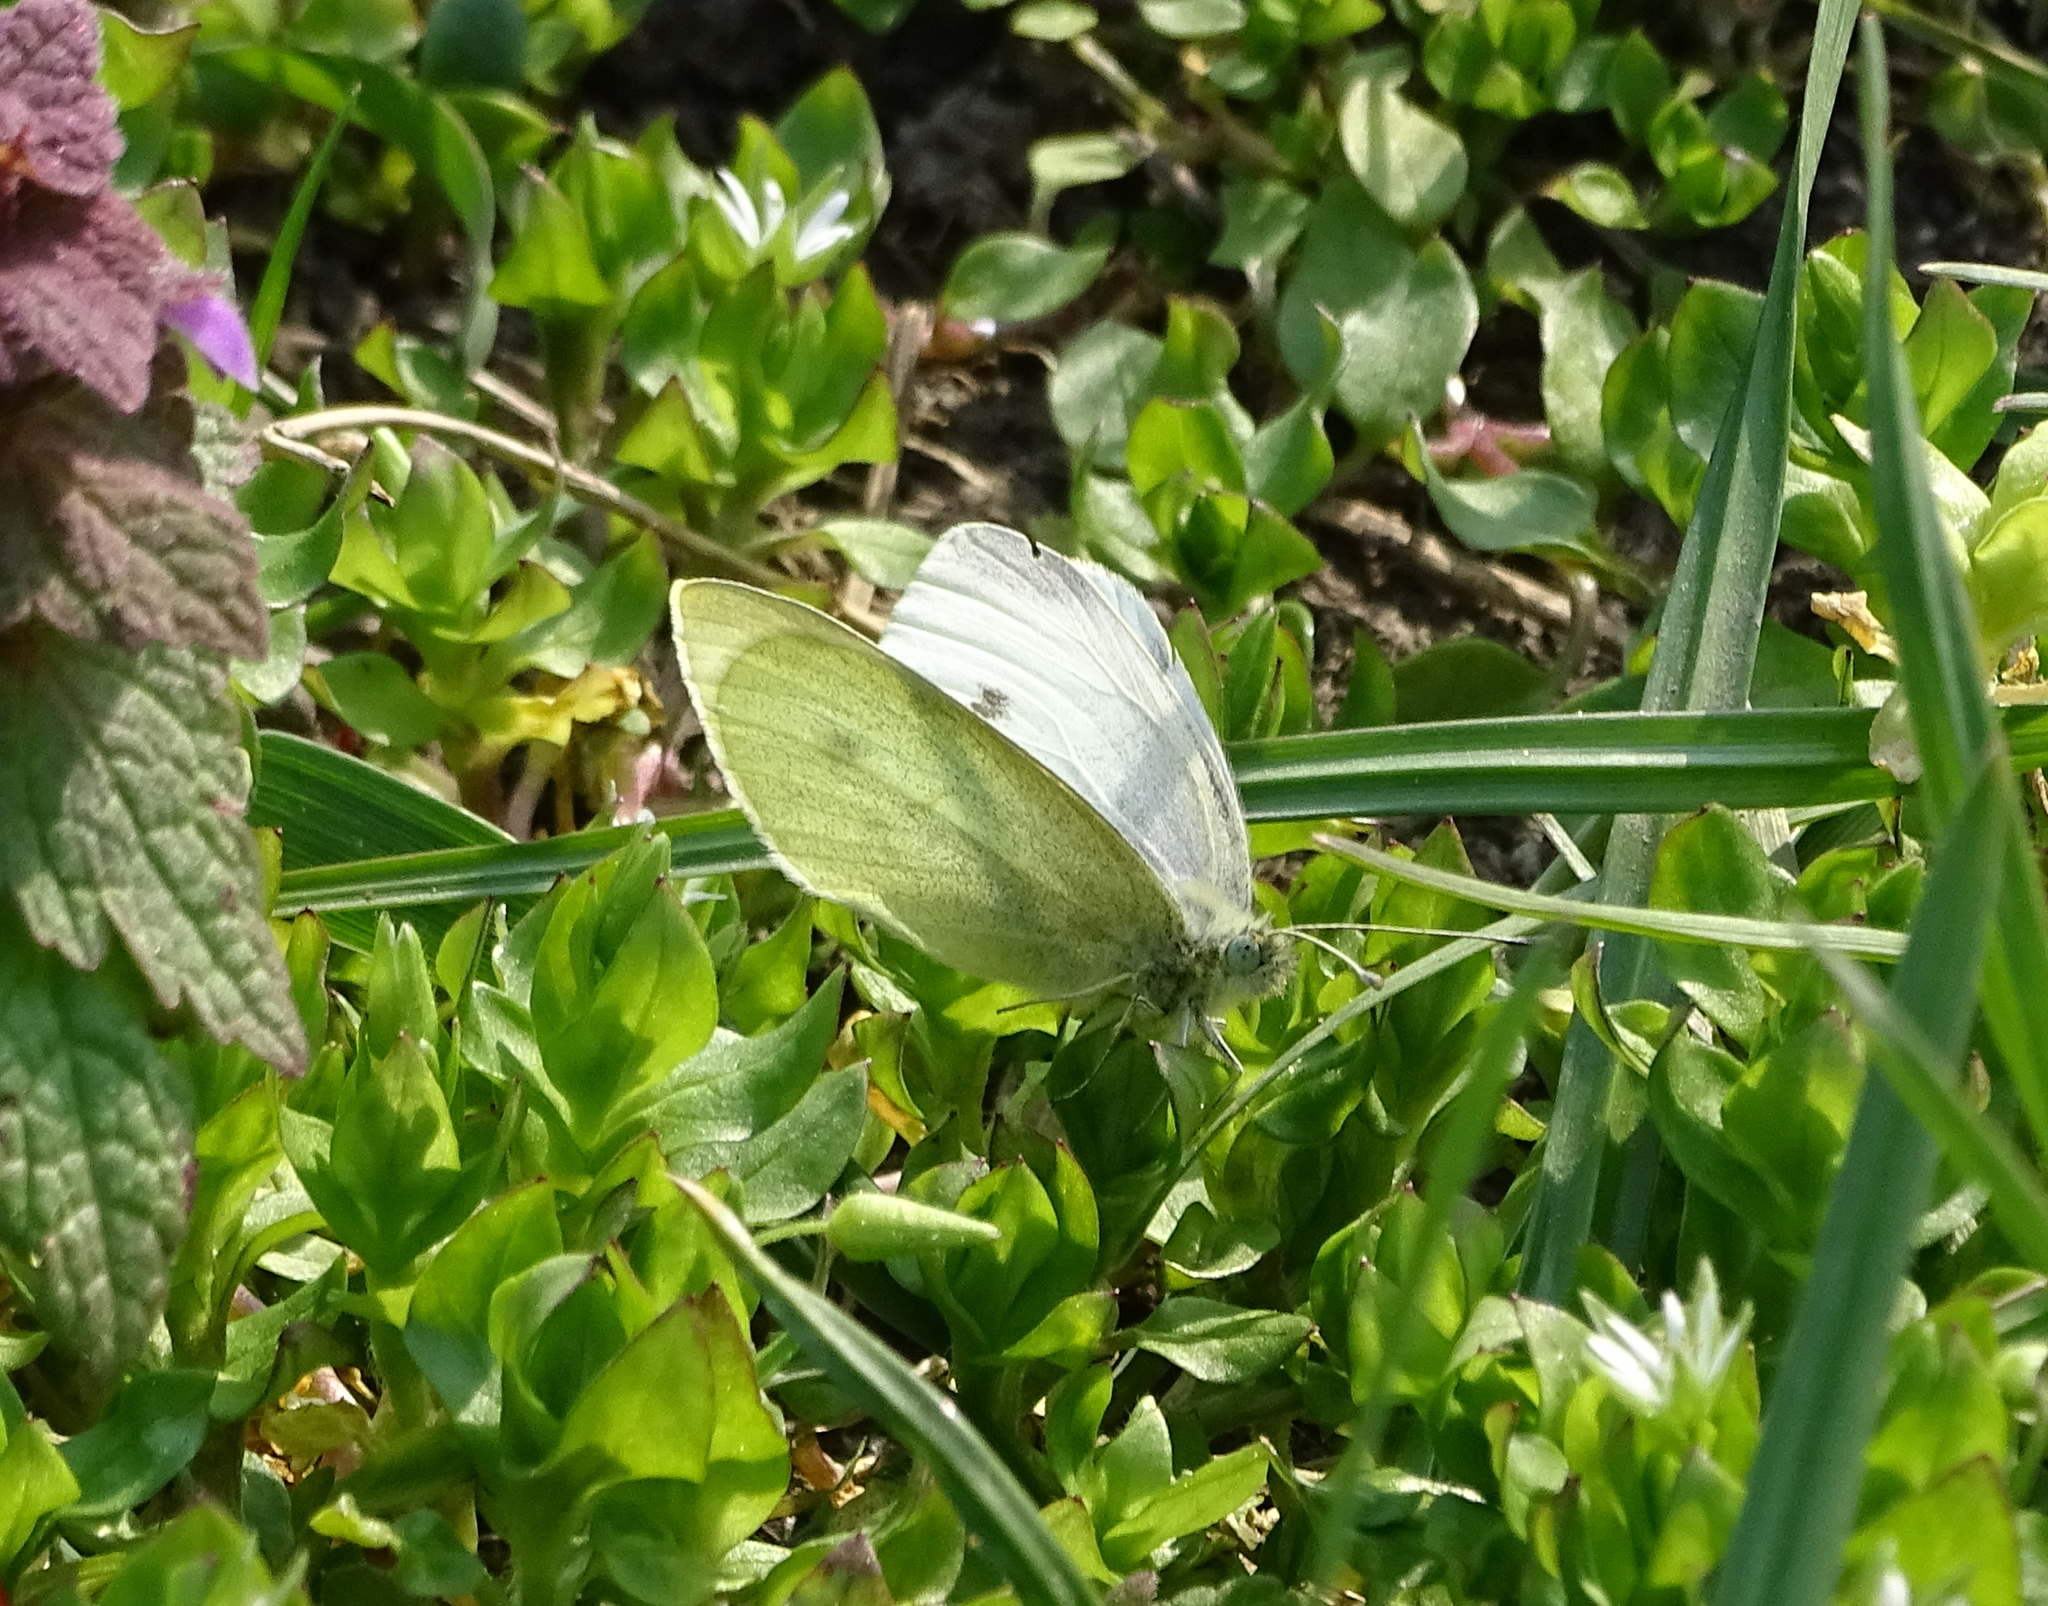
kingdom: Animalia
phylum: Arthropoda
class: Insecta
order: Lepidoptera
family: Pieridae
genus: Pieris
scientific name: Pieris rapae
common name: Small white
